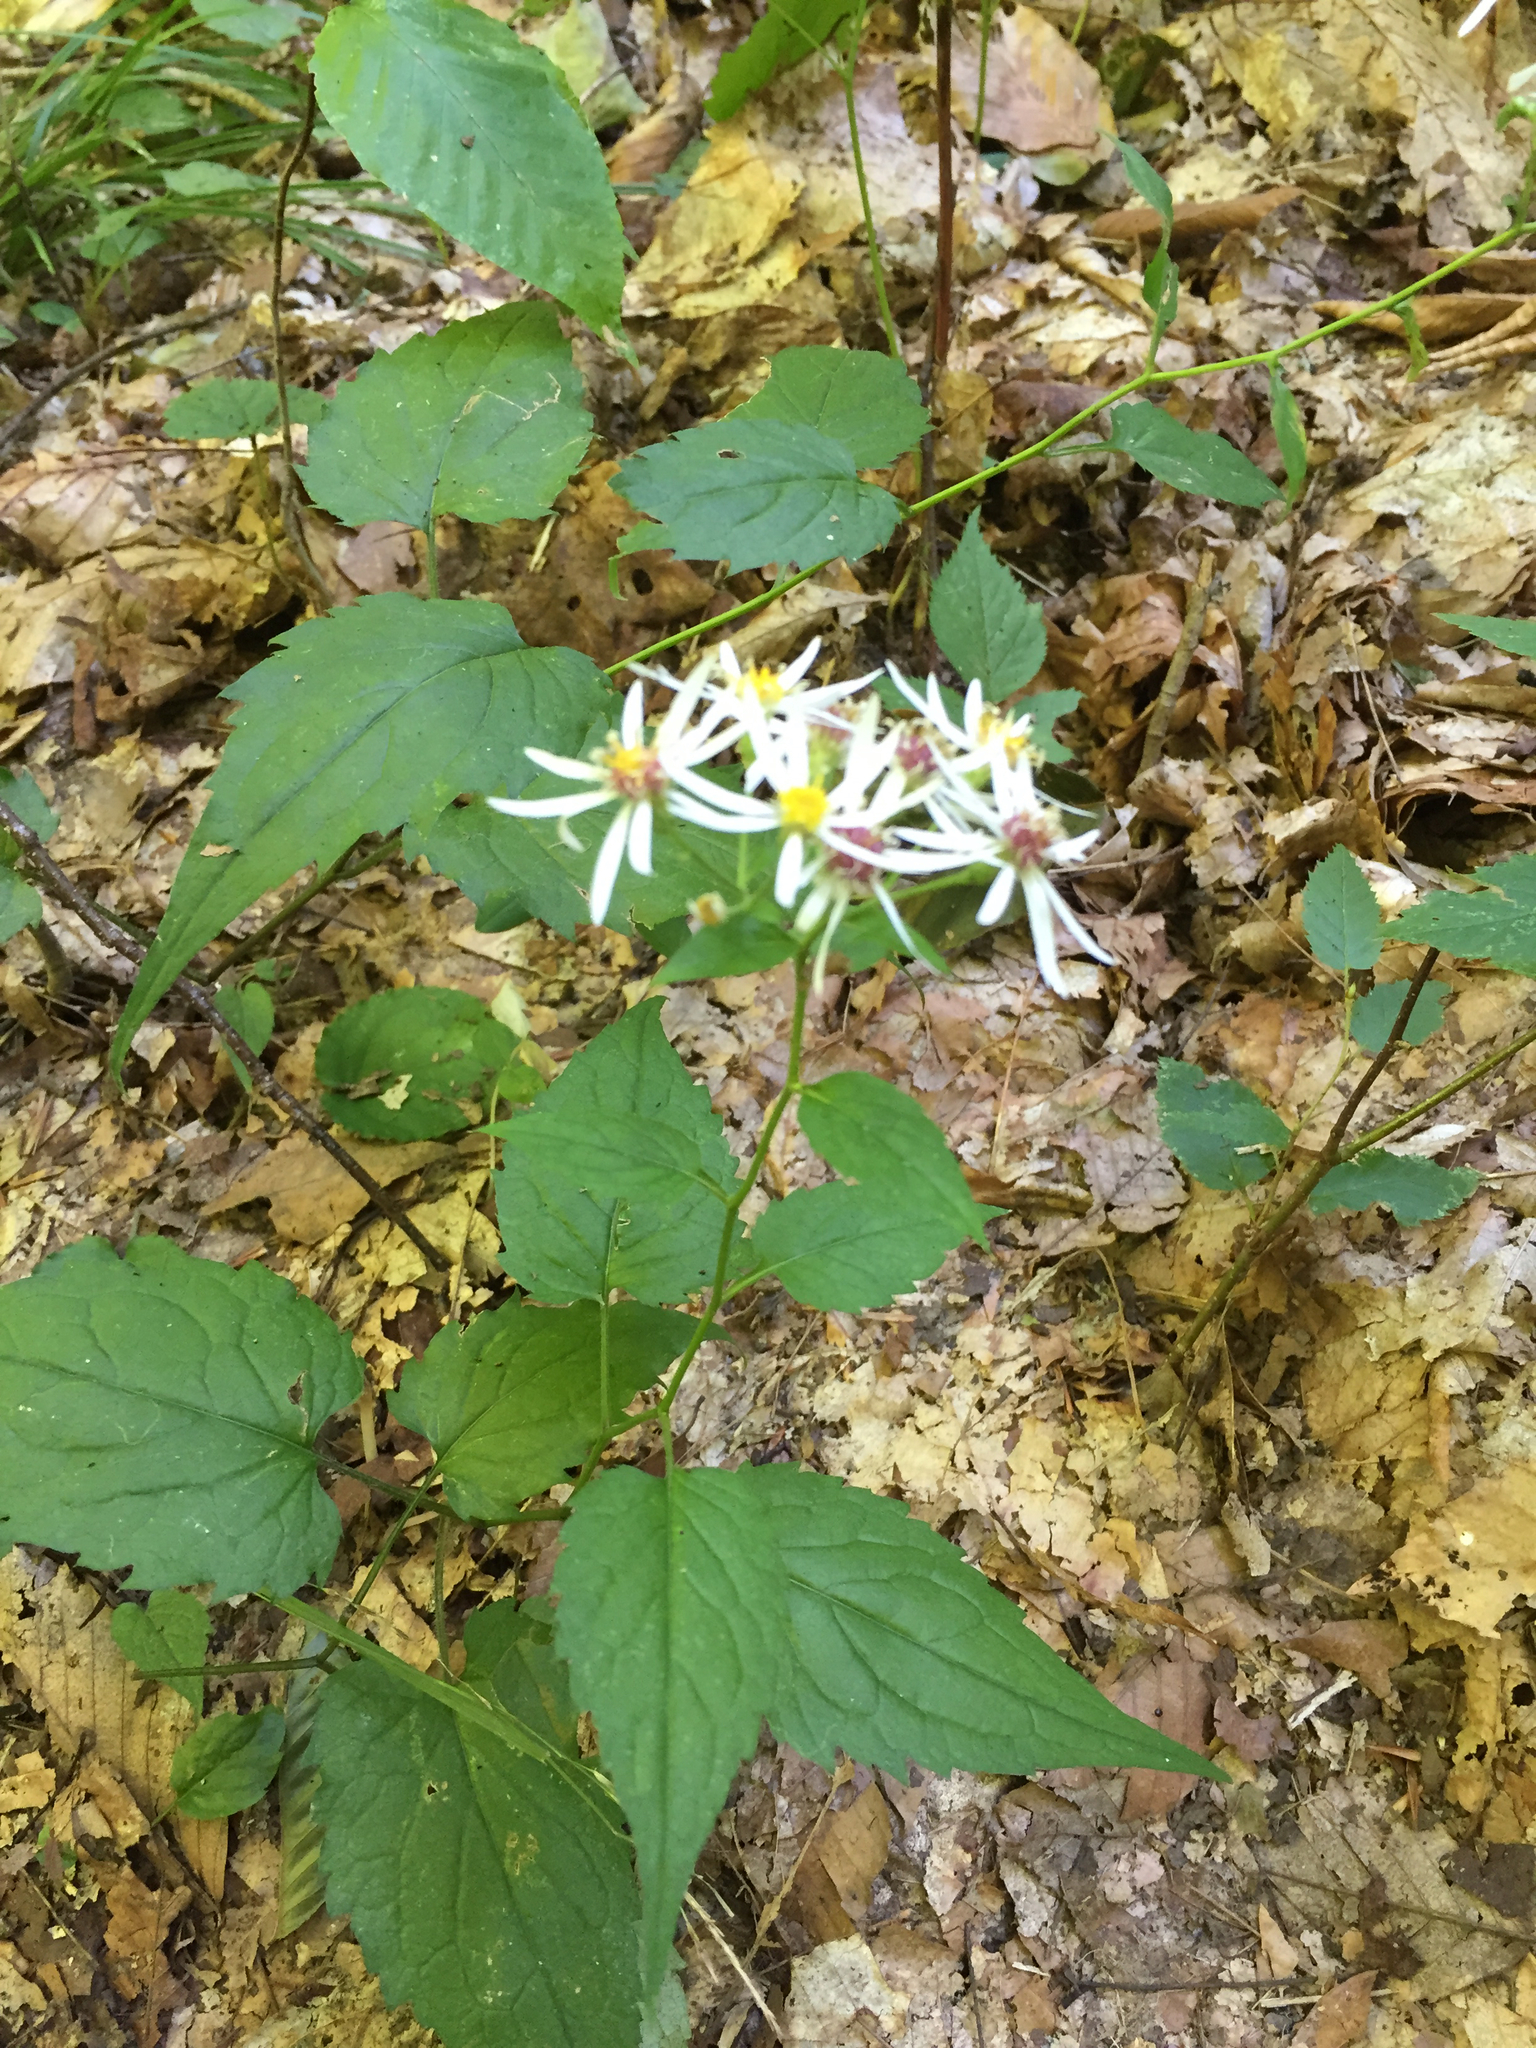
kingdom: Plantae
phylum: Tracheophyta
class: Magnoliopsida
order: Asterales
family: Asteraceae
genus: Eurybia
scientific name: Eurybia divaricata
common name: White wood aster
